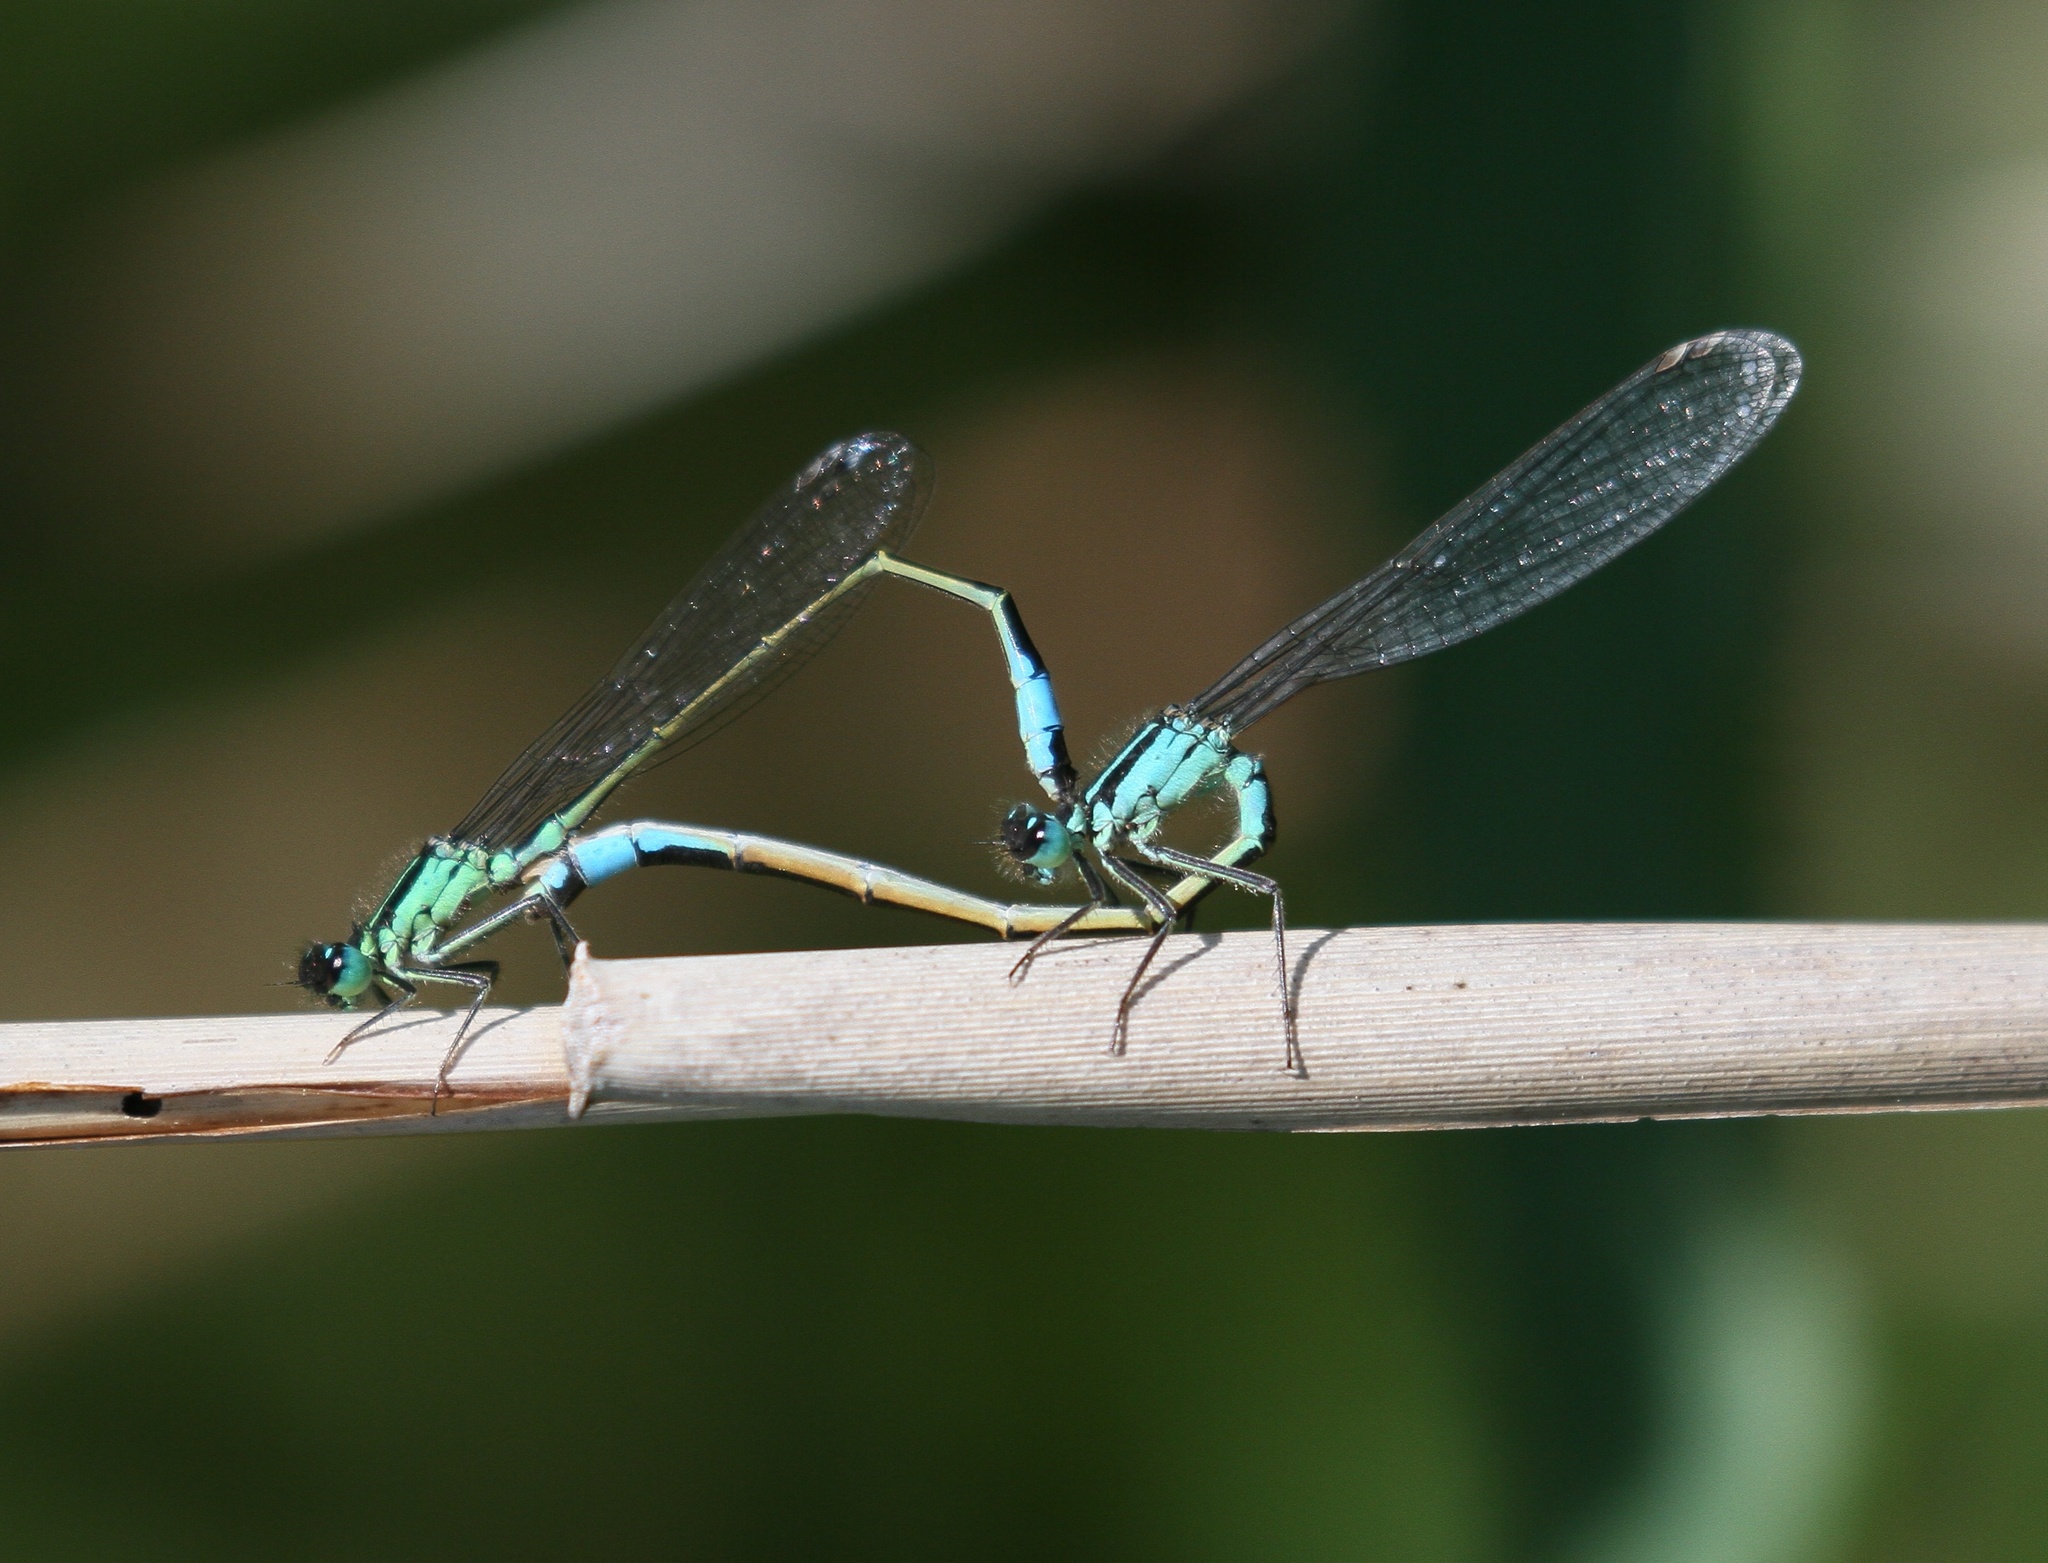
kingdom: Animalia
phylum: Arthropoda
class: Insecta
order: Odonata
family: Coenagrionidae
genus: Ischnura
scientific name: Ischnura elegans
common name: Blue-tailed damselfly
